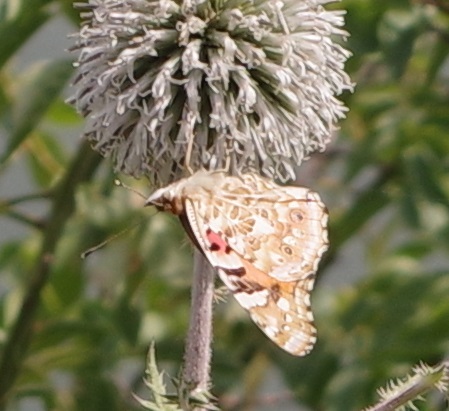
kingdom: Animalia
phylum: Arthropoda
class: Insecta
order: Lepidoptera
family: Nymphalidae
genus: Vanessa
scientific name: Vanessa cardui
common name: Painted lady
